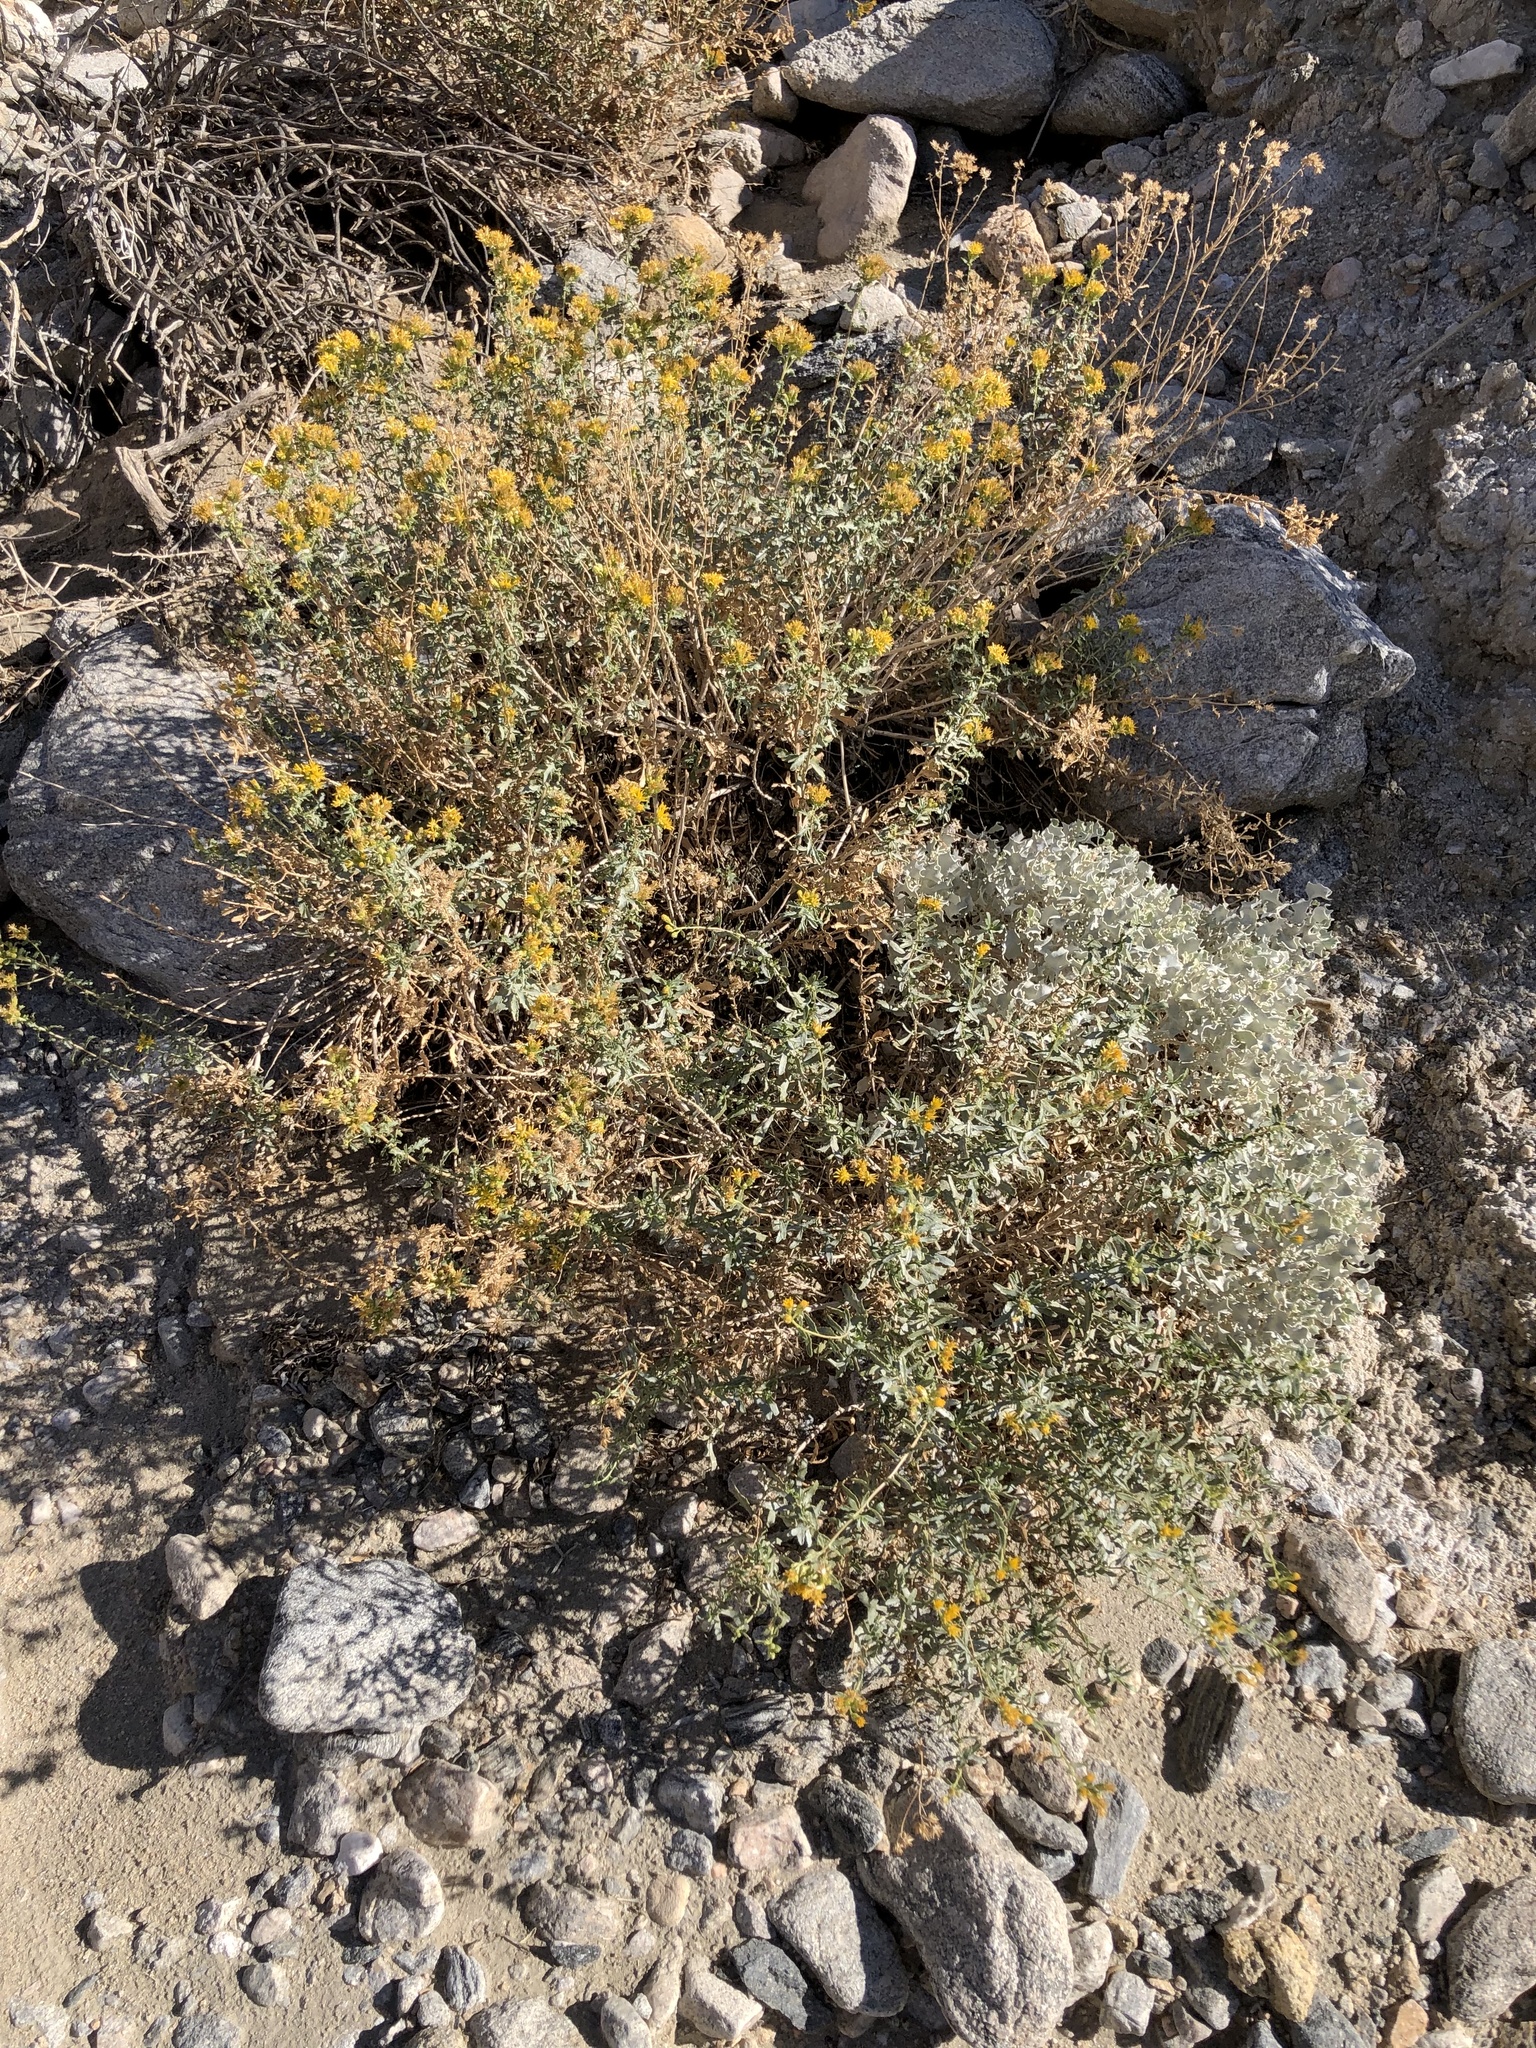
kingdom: Animalia
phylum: Arthropoda
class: Insecta
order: Hymenoptera
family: Apidae
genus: Apis
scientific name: Apis mellifera
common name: Honey bee
